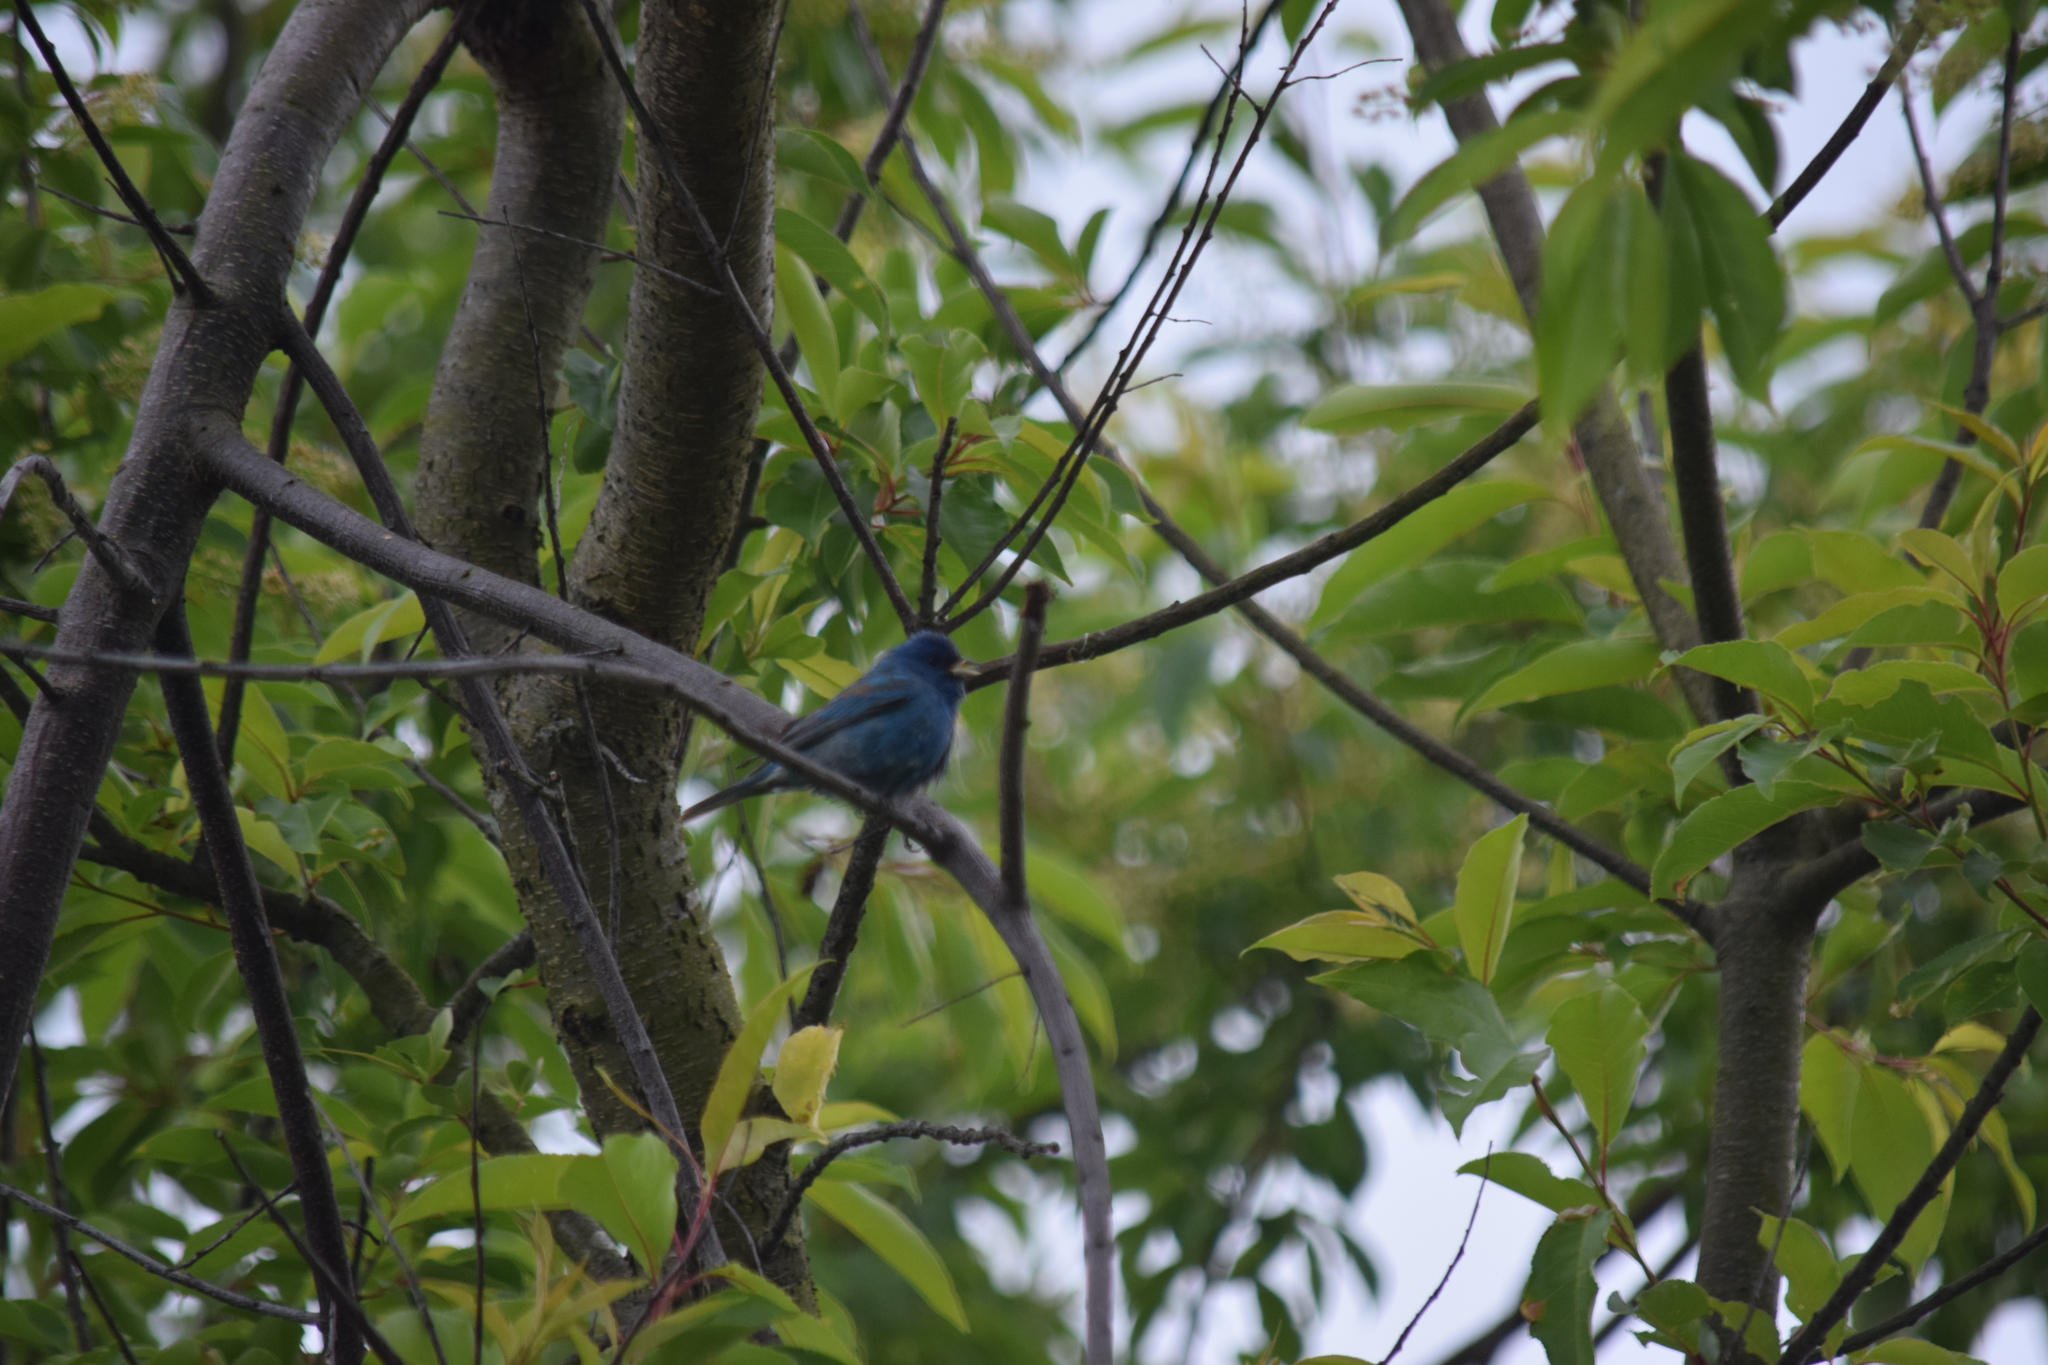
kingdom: Animalia
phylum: Chordata
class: Aves
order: Passeriformes
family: Cardinalidae
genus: Passerina
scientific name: Passerina cyanea
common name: Indigo bunting
